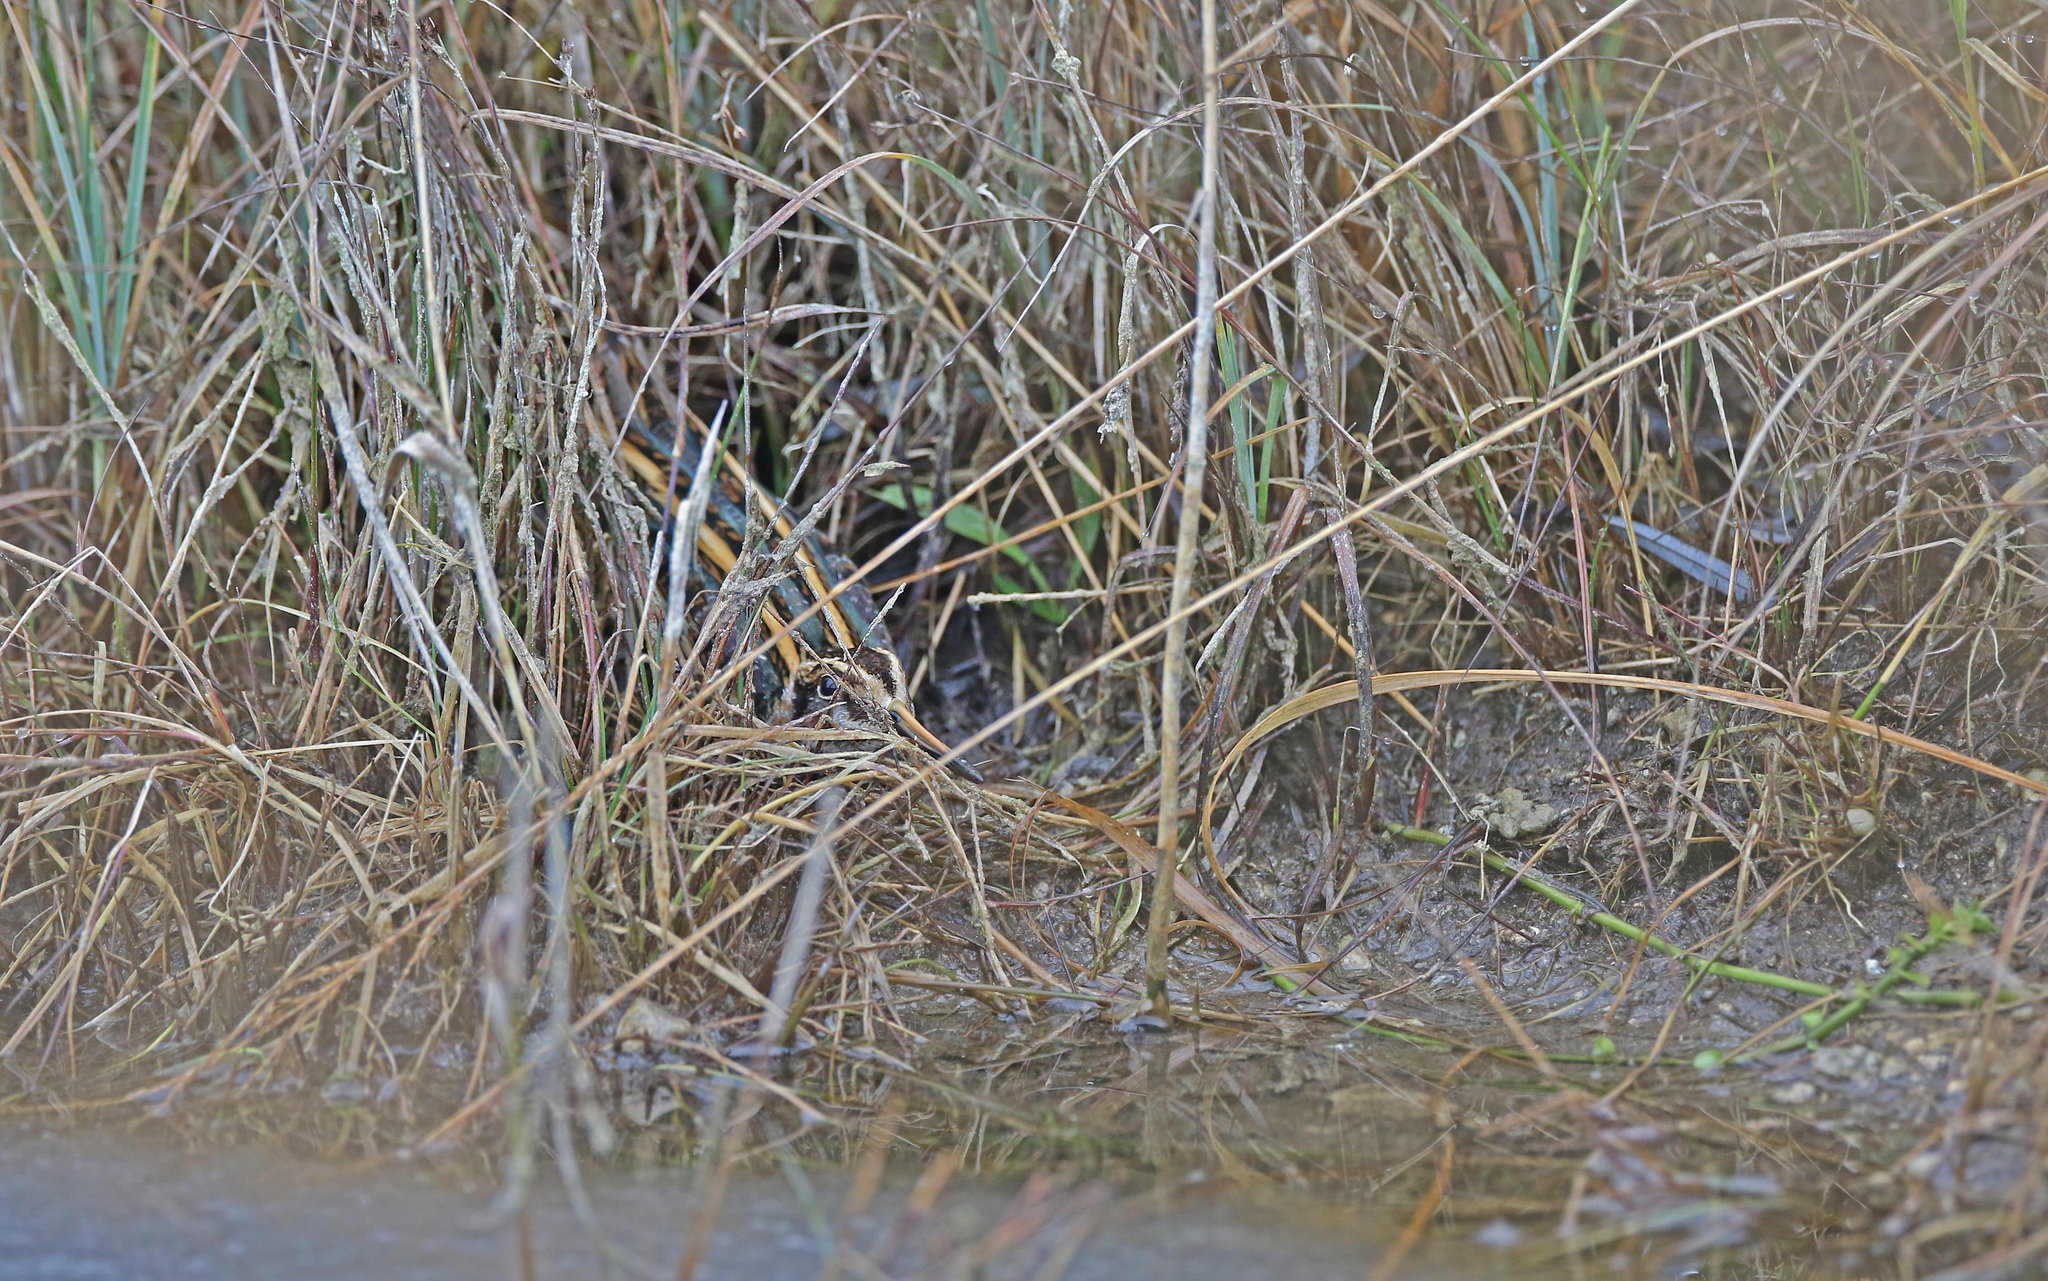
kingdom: Animalia
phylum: Chordata
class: Aves
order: Charadriiformes
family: Scolopacidae
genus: Lymnocryptes
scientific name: Lymnocryptes minimus
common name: Jack snipe
